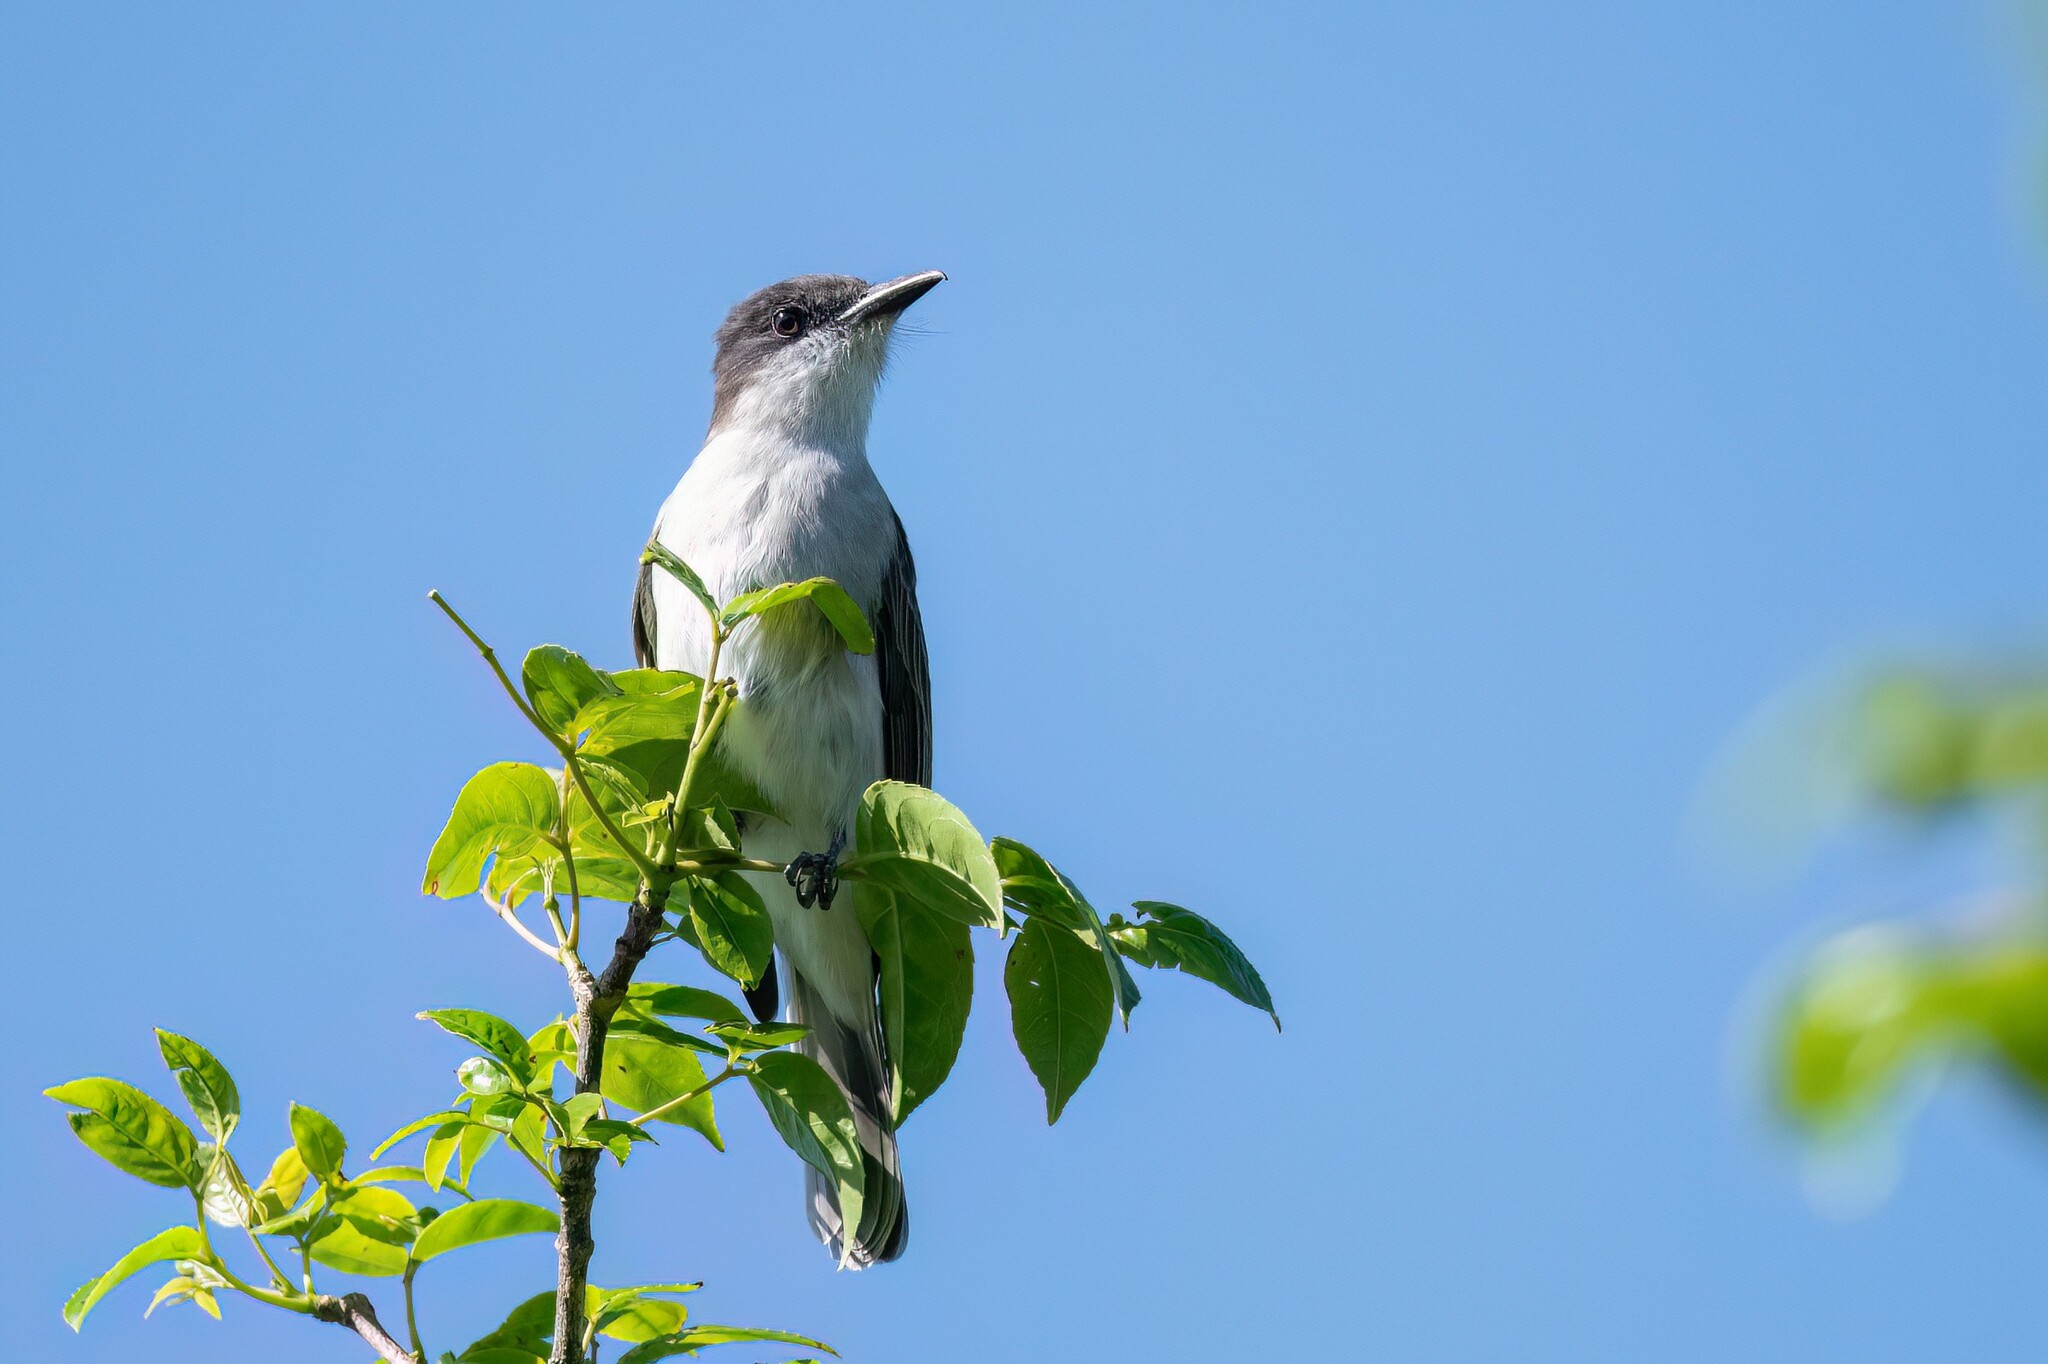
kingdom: Animalia
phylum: Chordata
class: Aves
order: Passeriformes
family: Tyrannidae
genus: Tyrannus
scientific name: Tyrannus caudifasciatus
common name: Loggerhead kingbird
